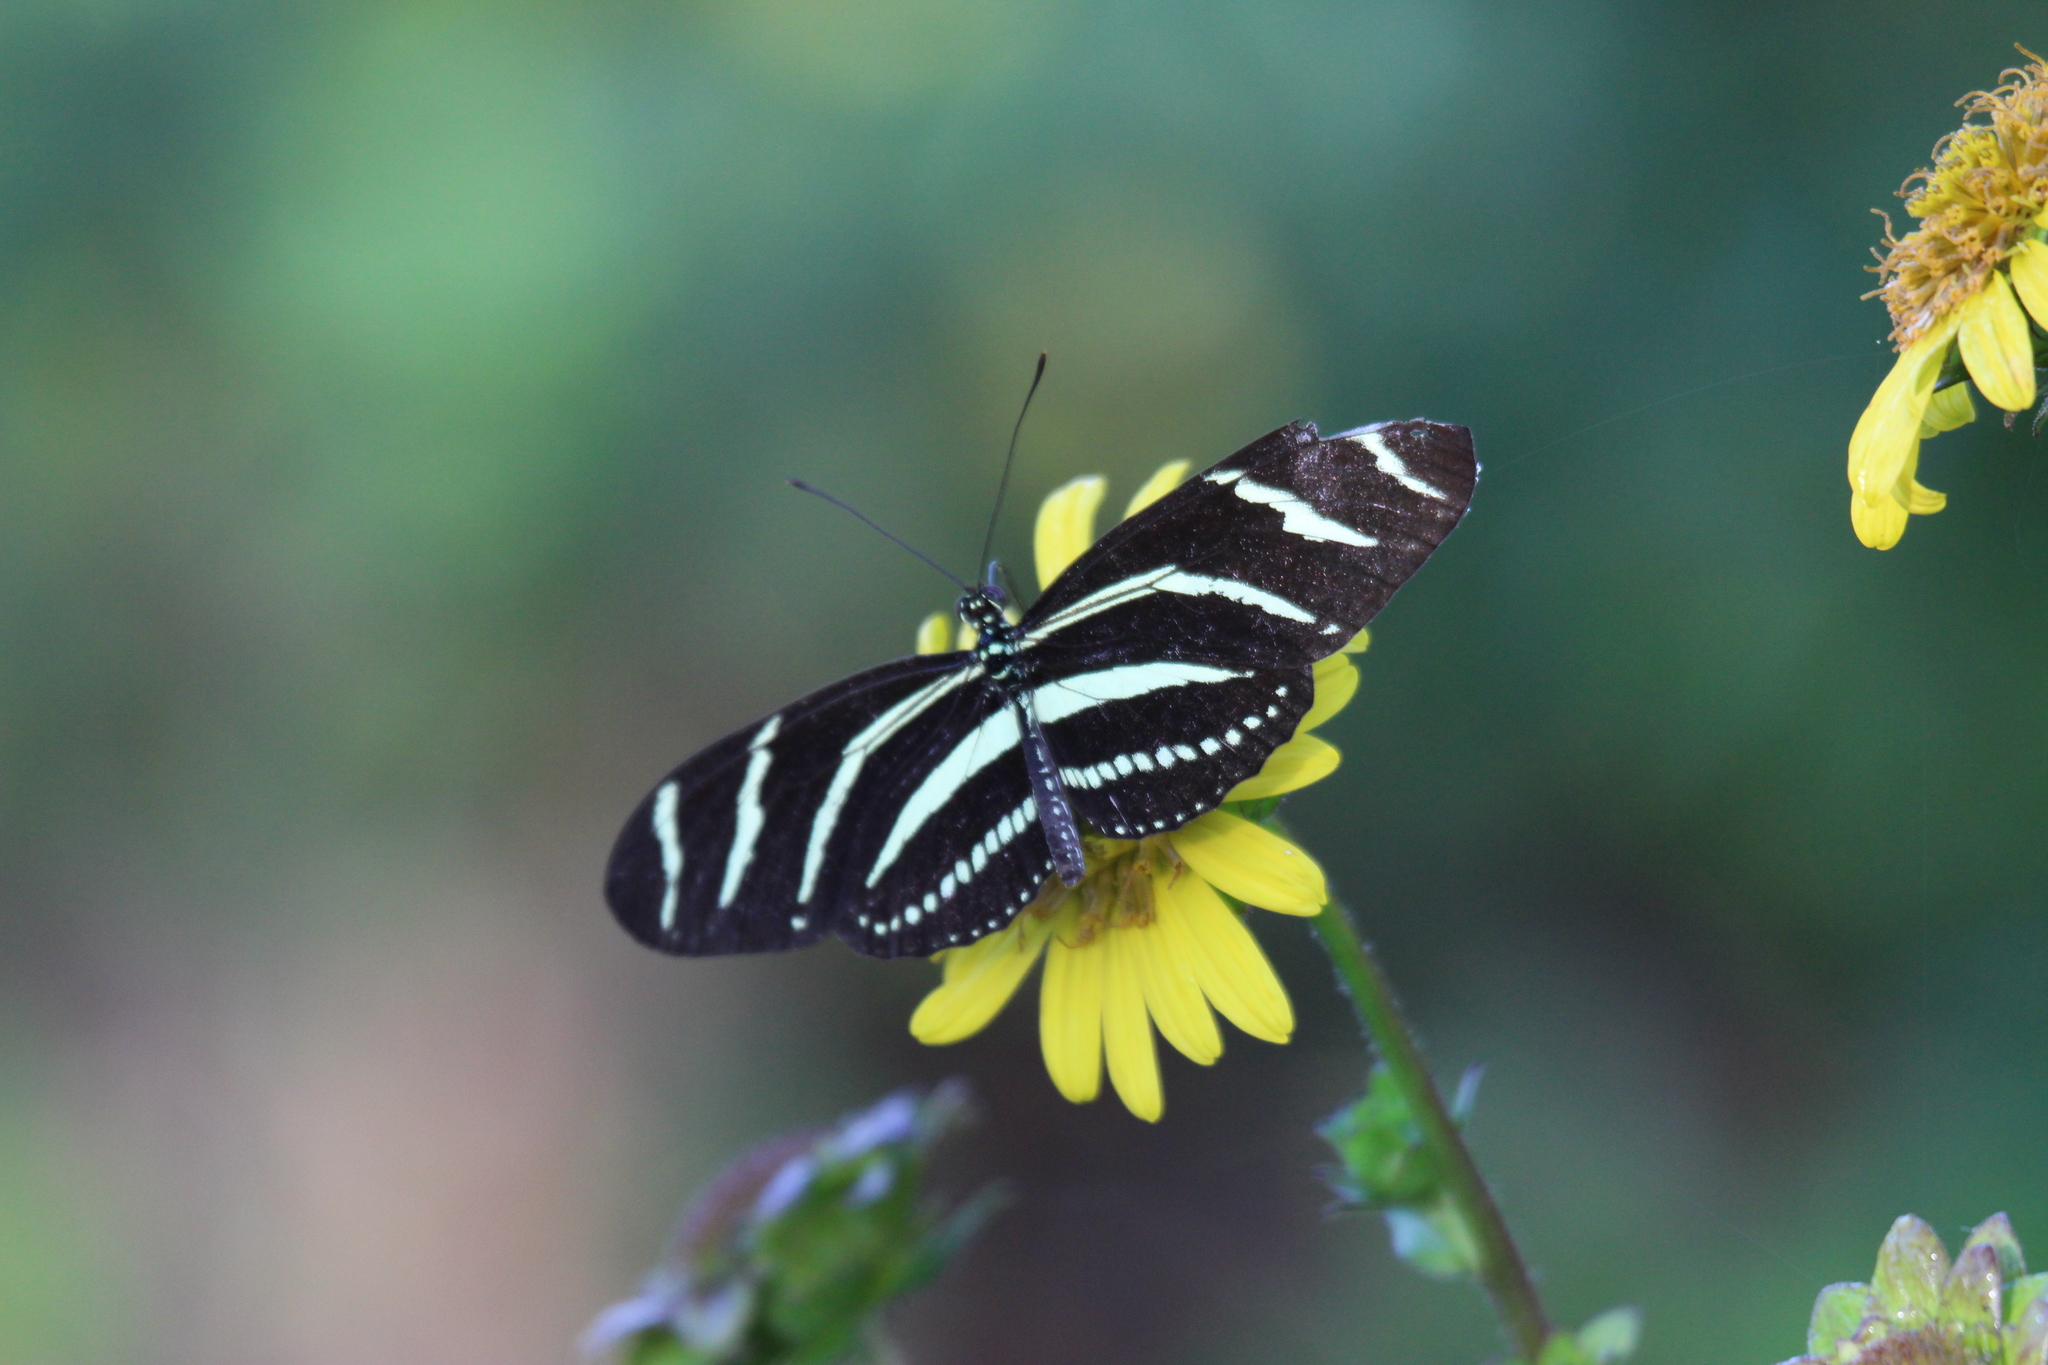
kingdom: Animalia
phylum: Arthropoda
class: Insecta
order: Lepidoptera
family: Nymphalidae
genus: Heliconius
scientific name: Heliconius charithonia
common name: Zebra long wing
